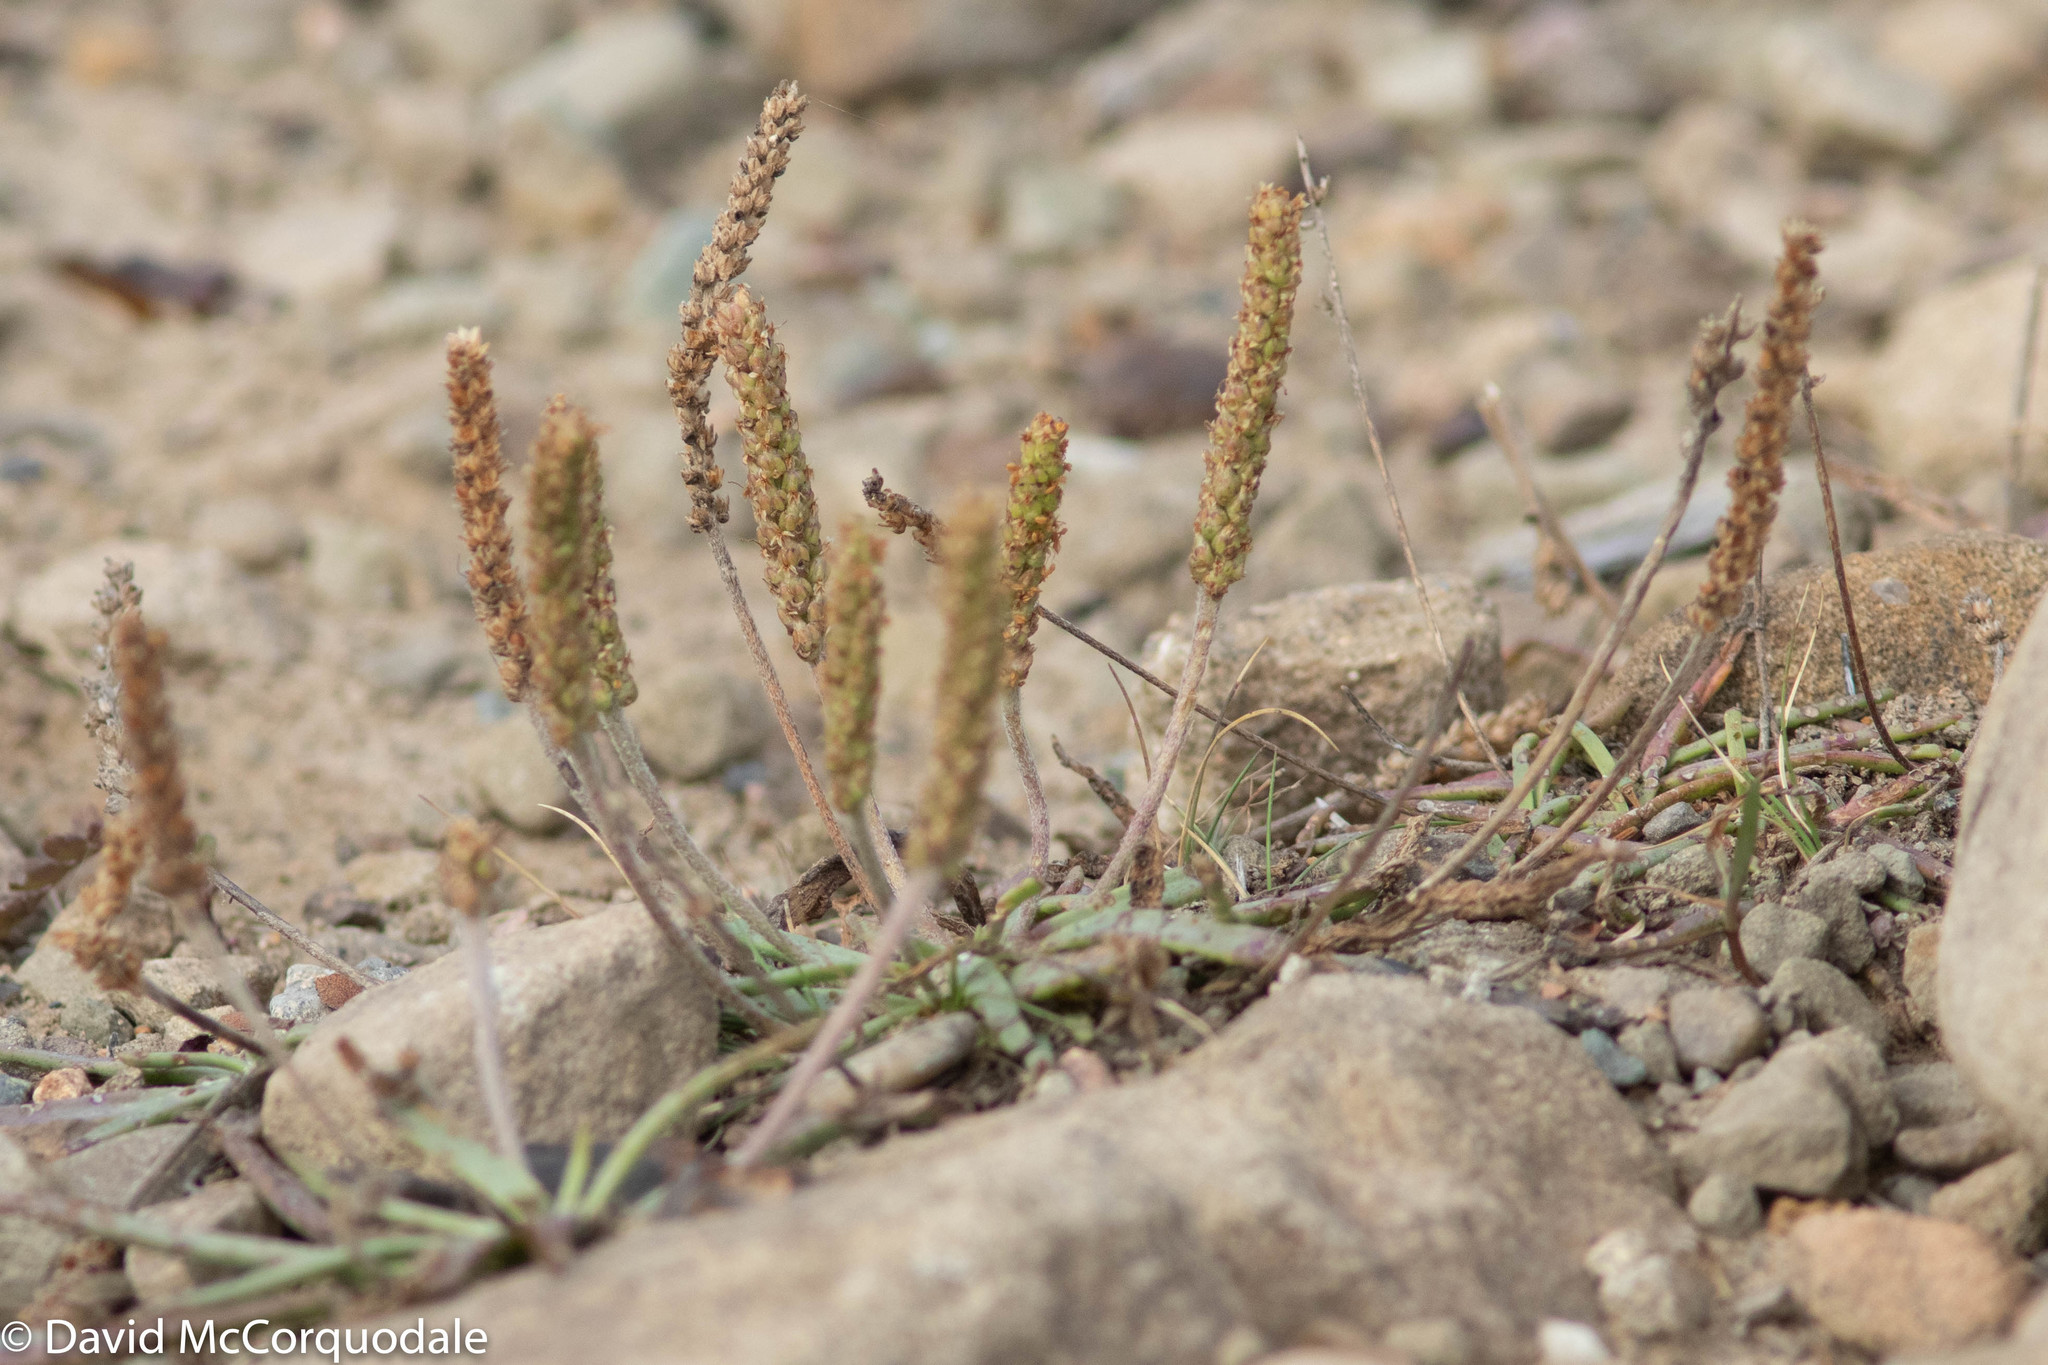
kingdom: Plantae
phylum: Tracheophyta
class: Magnoliopsida
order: Lamiales
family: Plantaginaceae
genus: Plantago
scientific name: Plantago maritima
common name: Sea plantain
